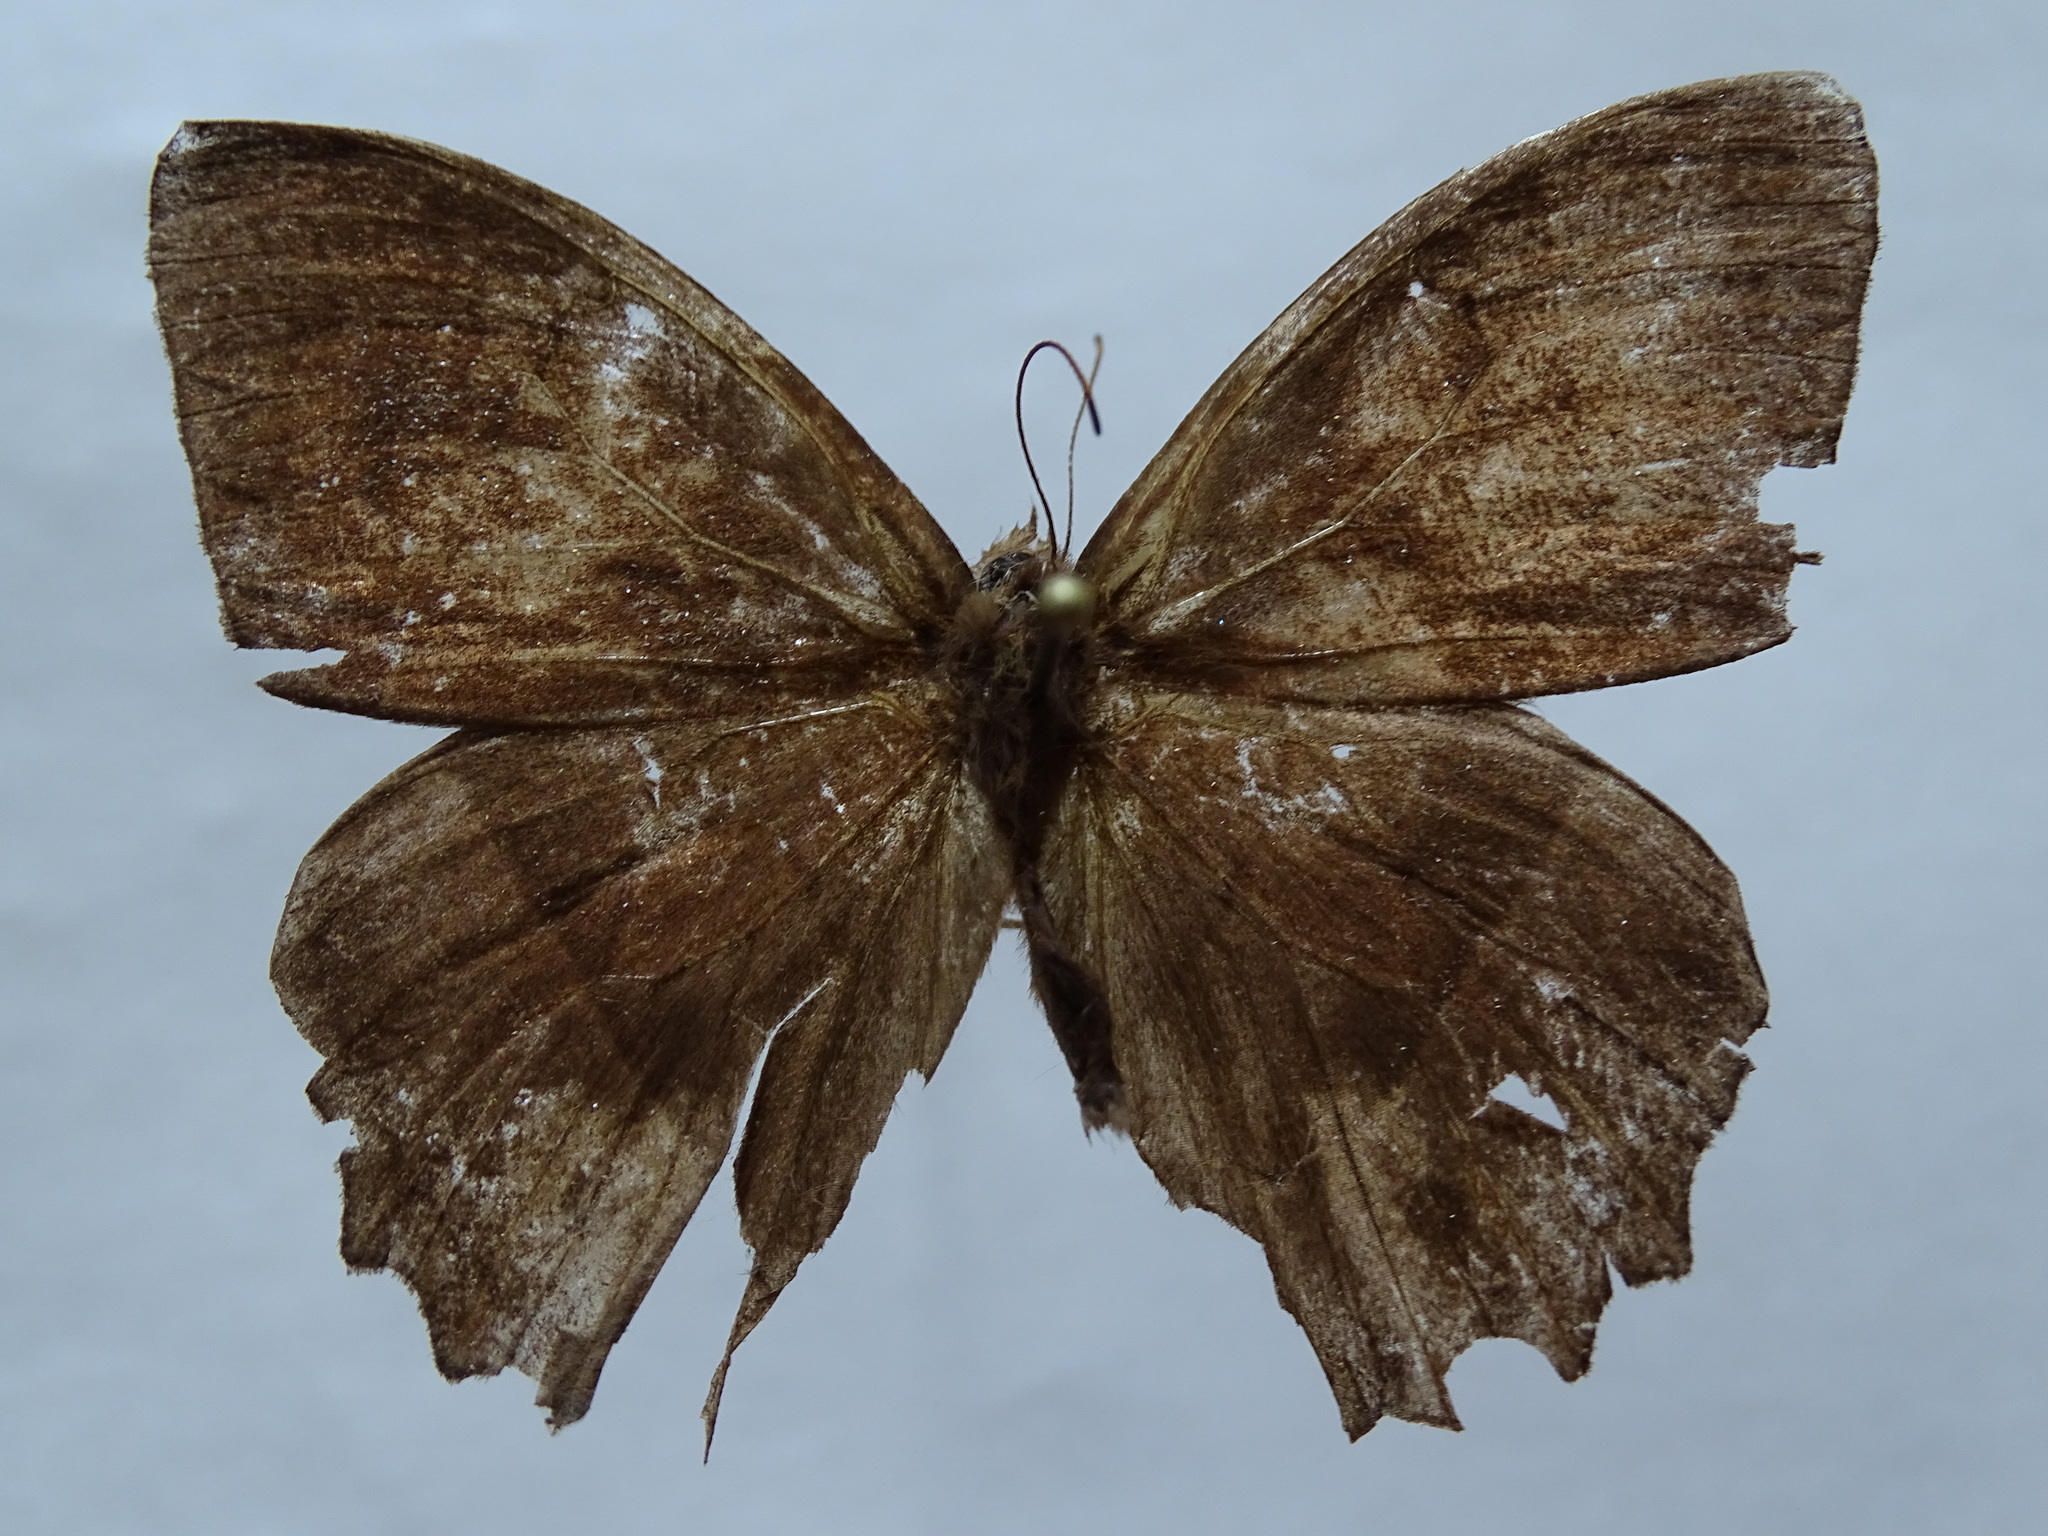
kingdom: Animalia
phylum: Arthropoda
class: Insecta
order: Lepidoptera
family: Nymphalidae
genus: Taygetis
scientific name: Taygetis salvini
